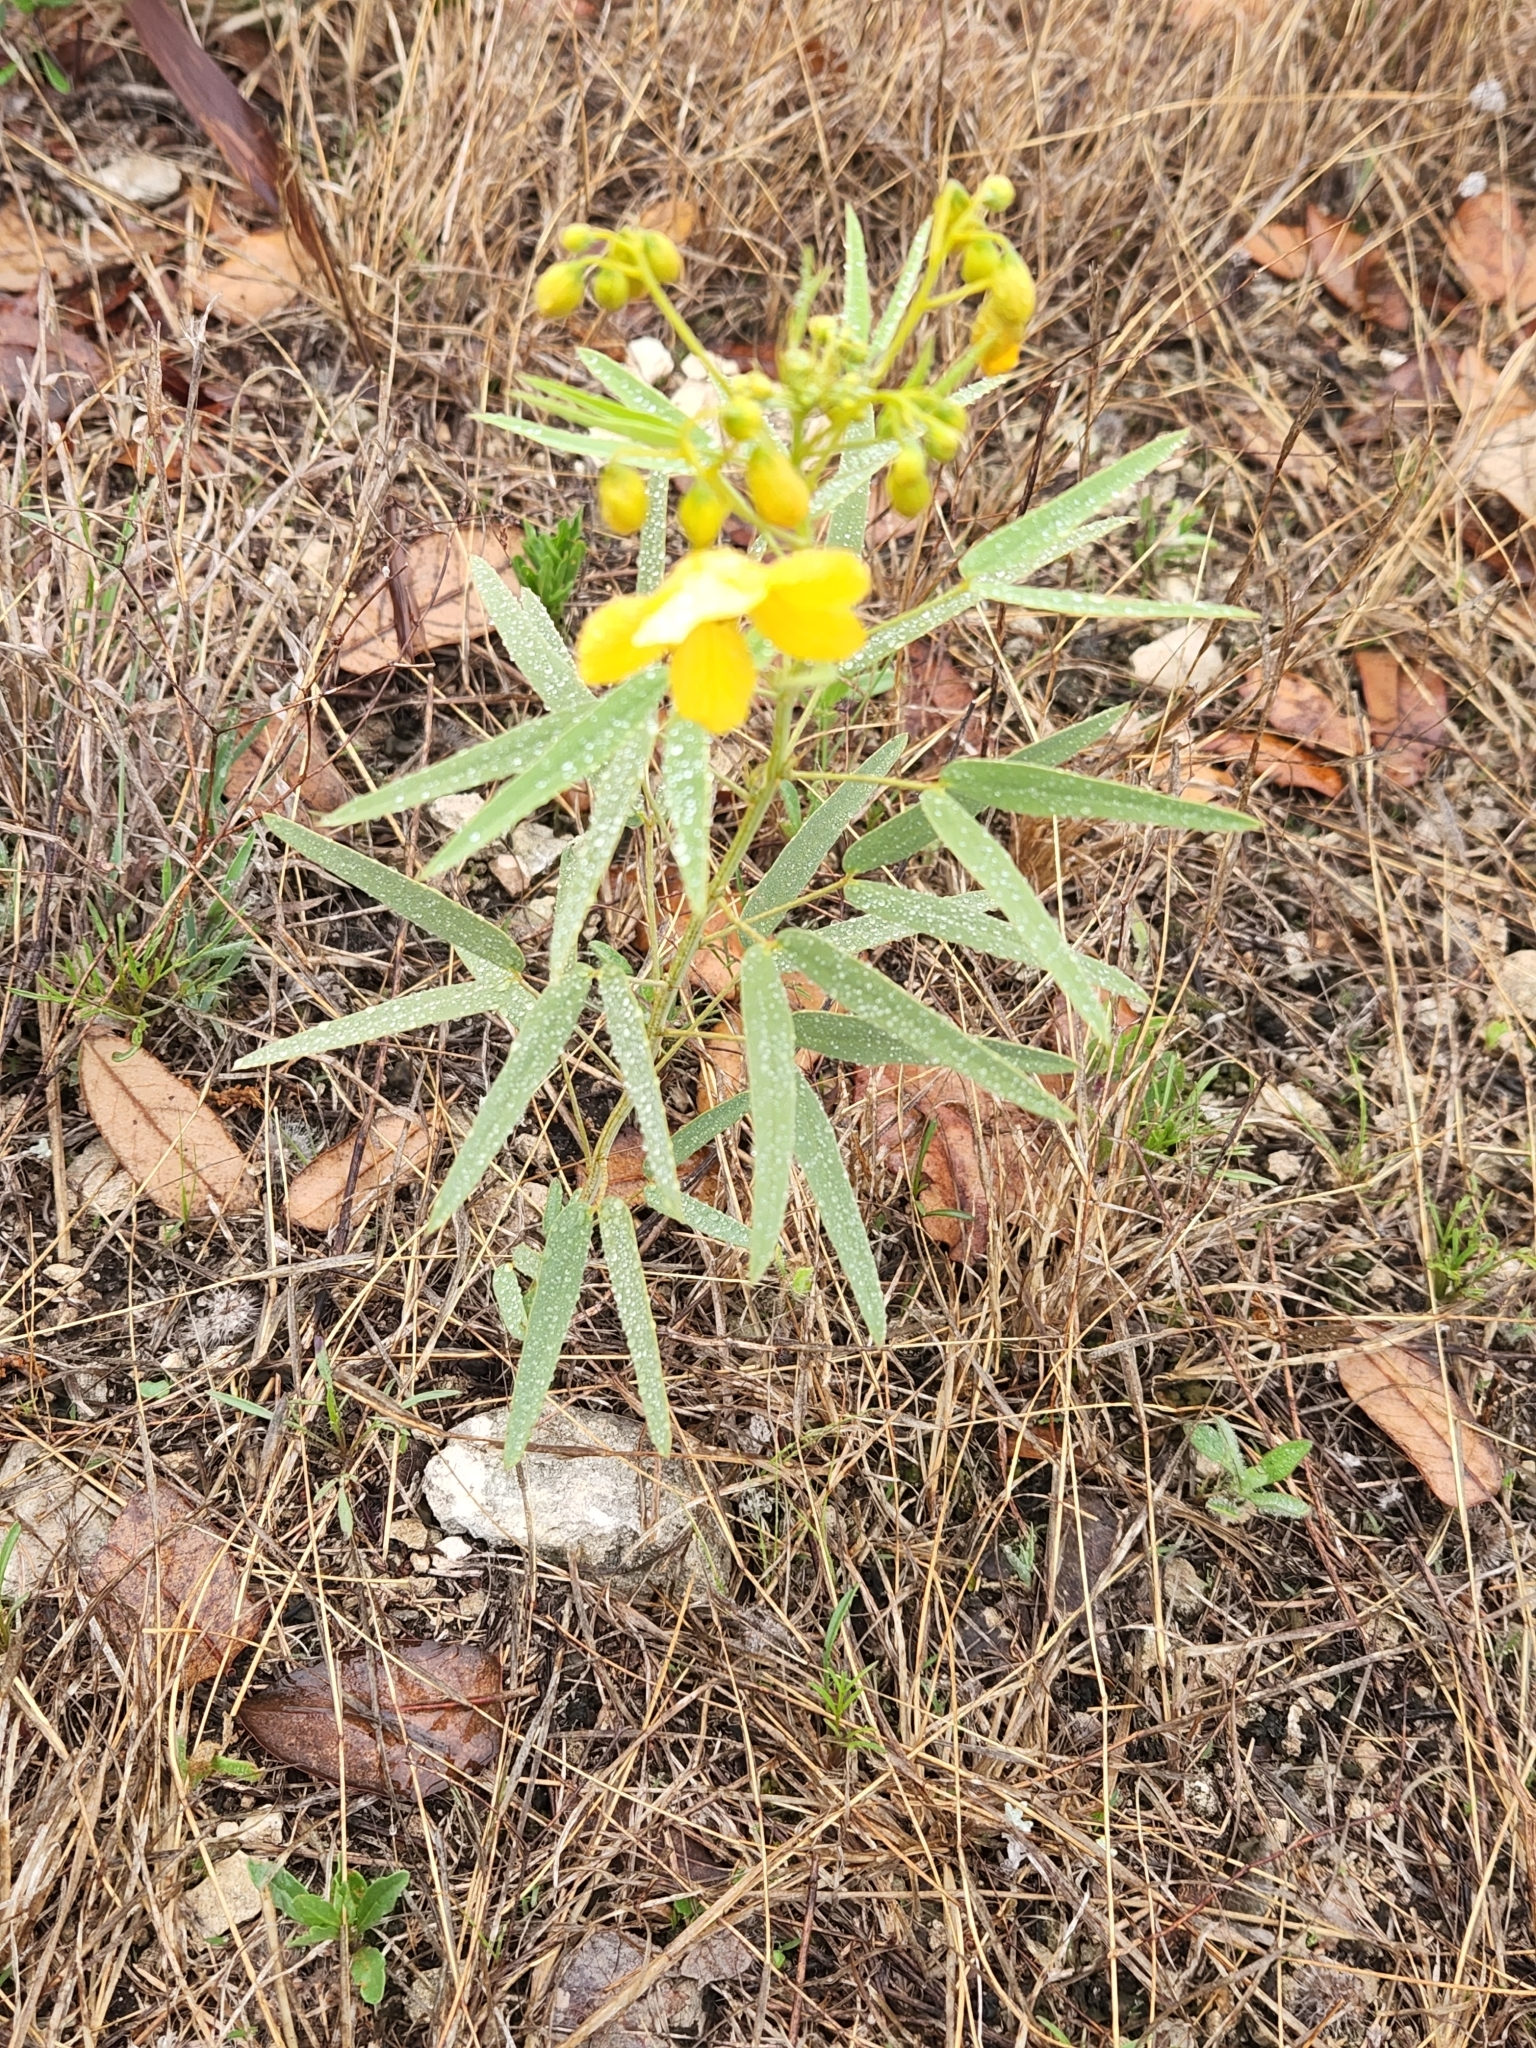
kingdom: Plantae
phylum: Tracheophyta
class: Magnoliopsida
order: Fabales
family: Fabaceae
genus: Senna
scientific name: Senna roemeriana
